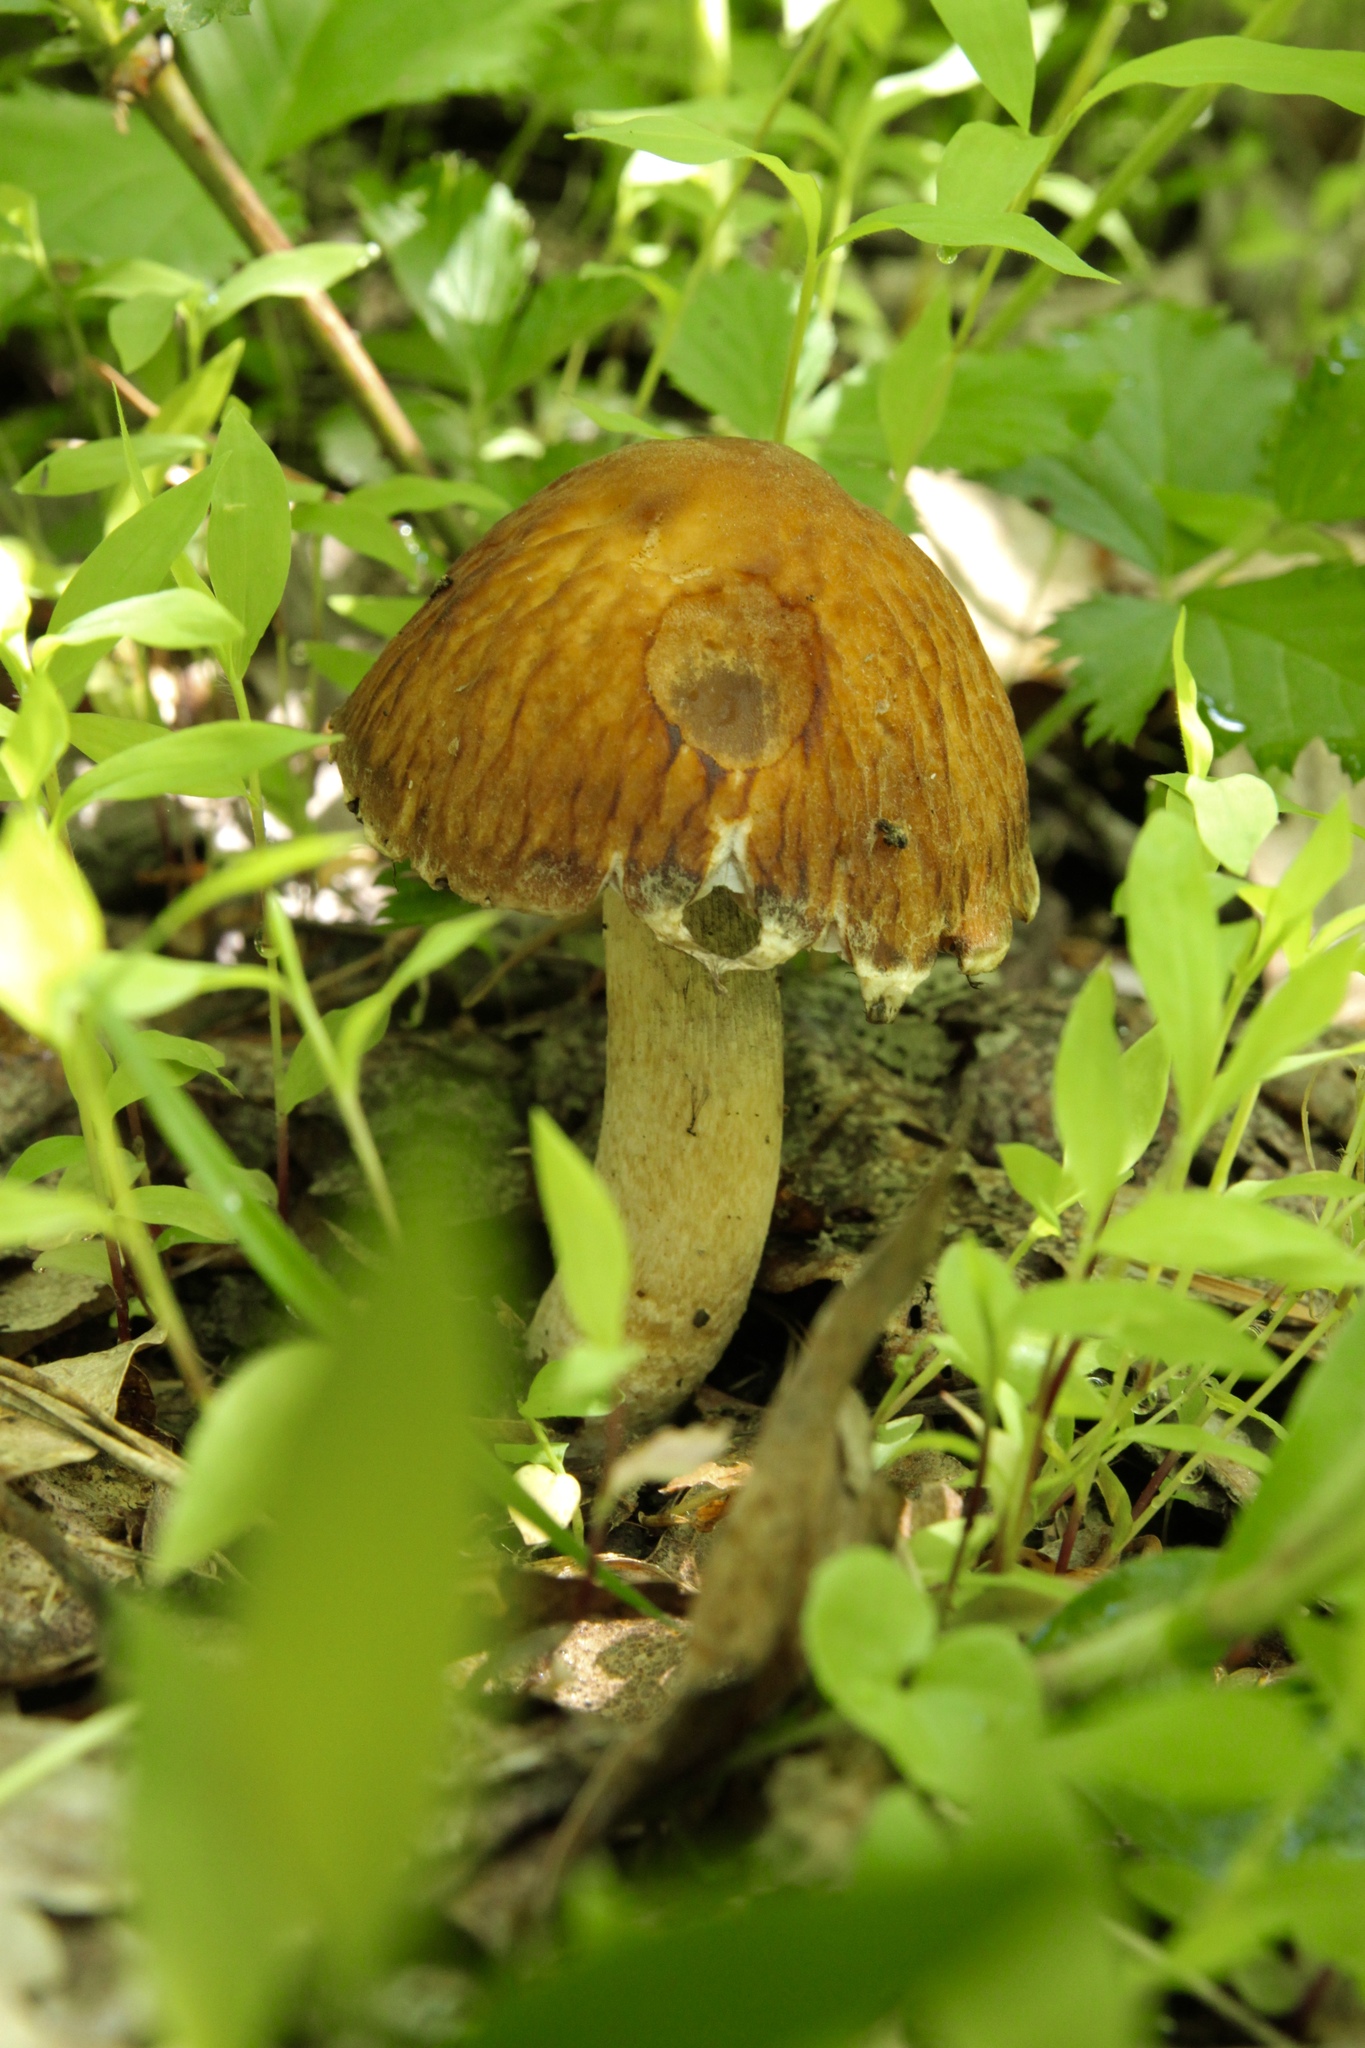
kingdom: Fungi
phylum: Basidiomycota
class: Agaricomycetes
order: Agaricales
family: Psathyrellaceae
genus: Typhrasa
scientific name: Typhrasa gossypina
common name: Wrinkled psathyrella
